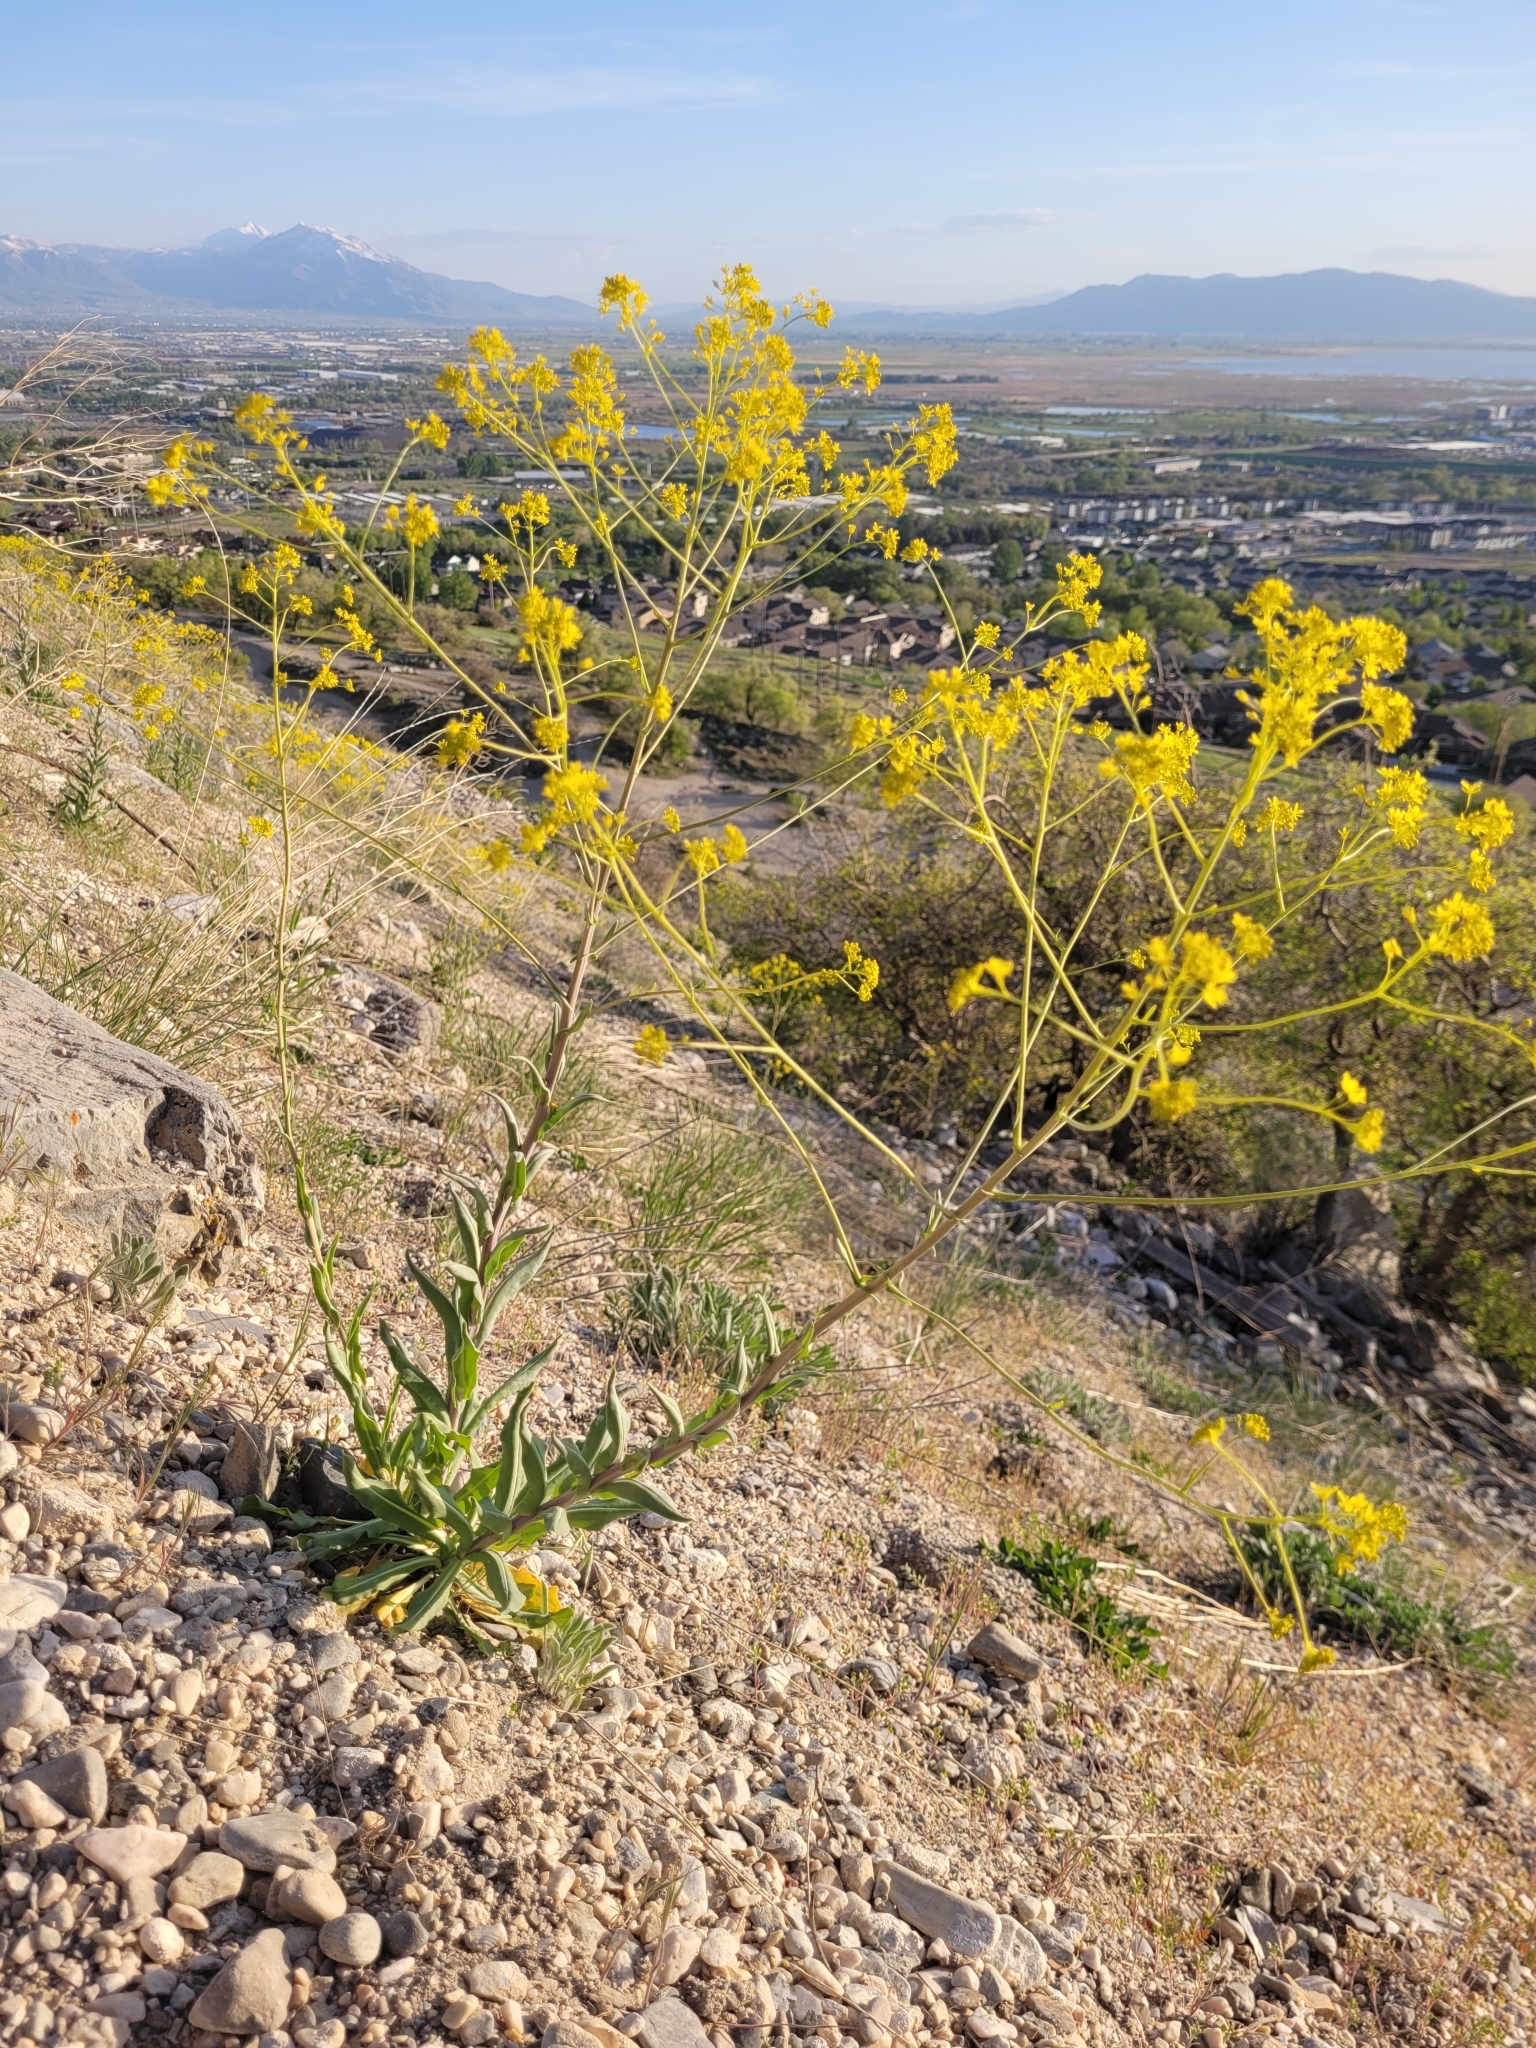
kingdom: Plantae
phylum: Tracheophyta
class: Magnoliopsida
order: Brassicales
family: Brassicaceae
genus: Isatis
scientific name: Isatis tinctoria
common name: Woad
